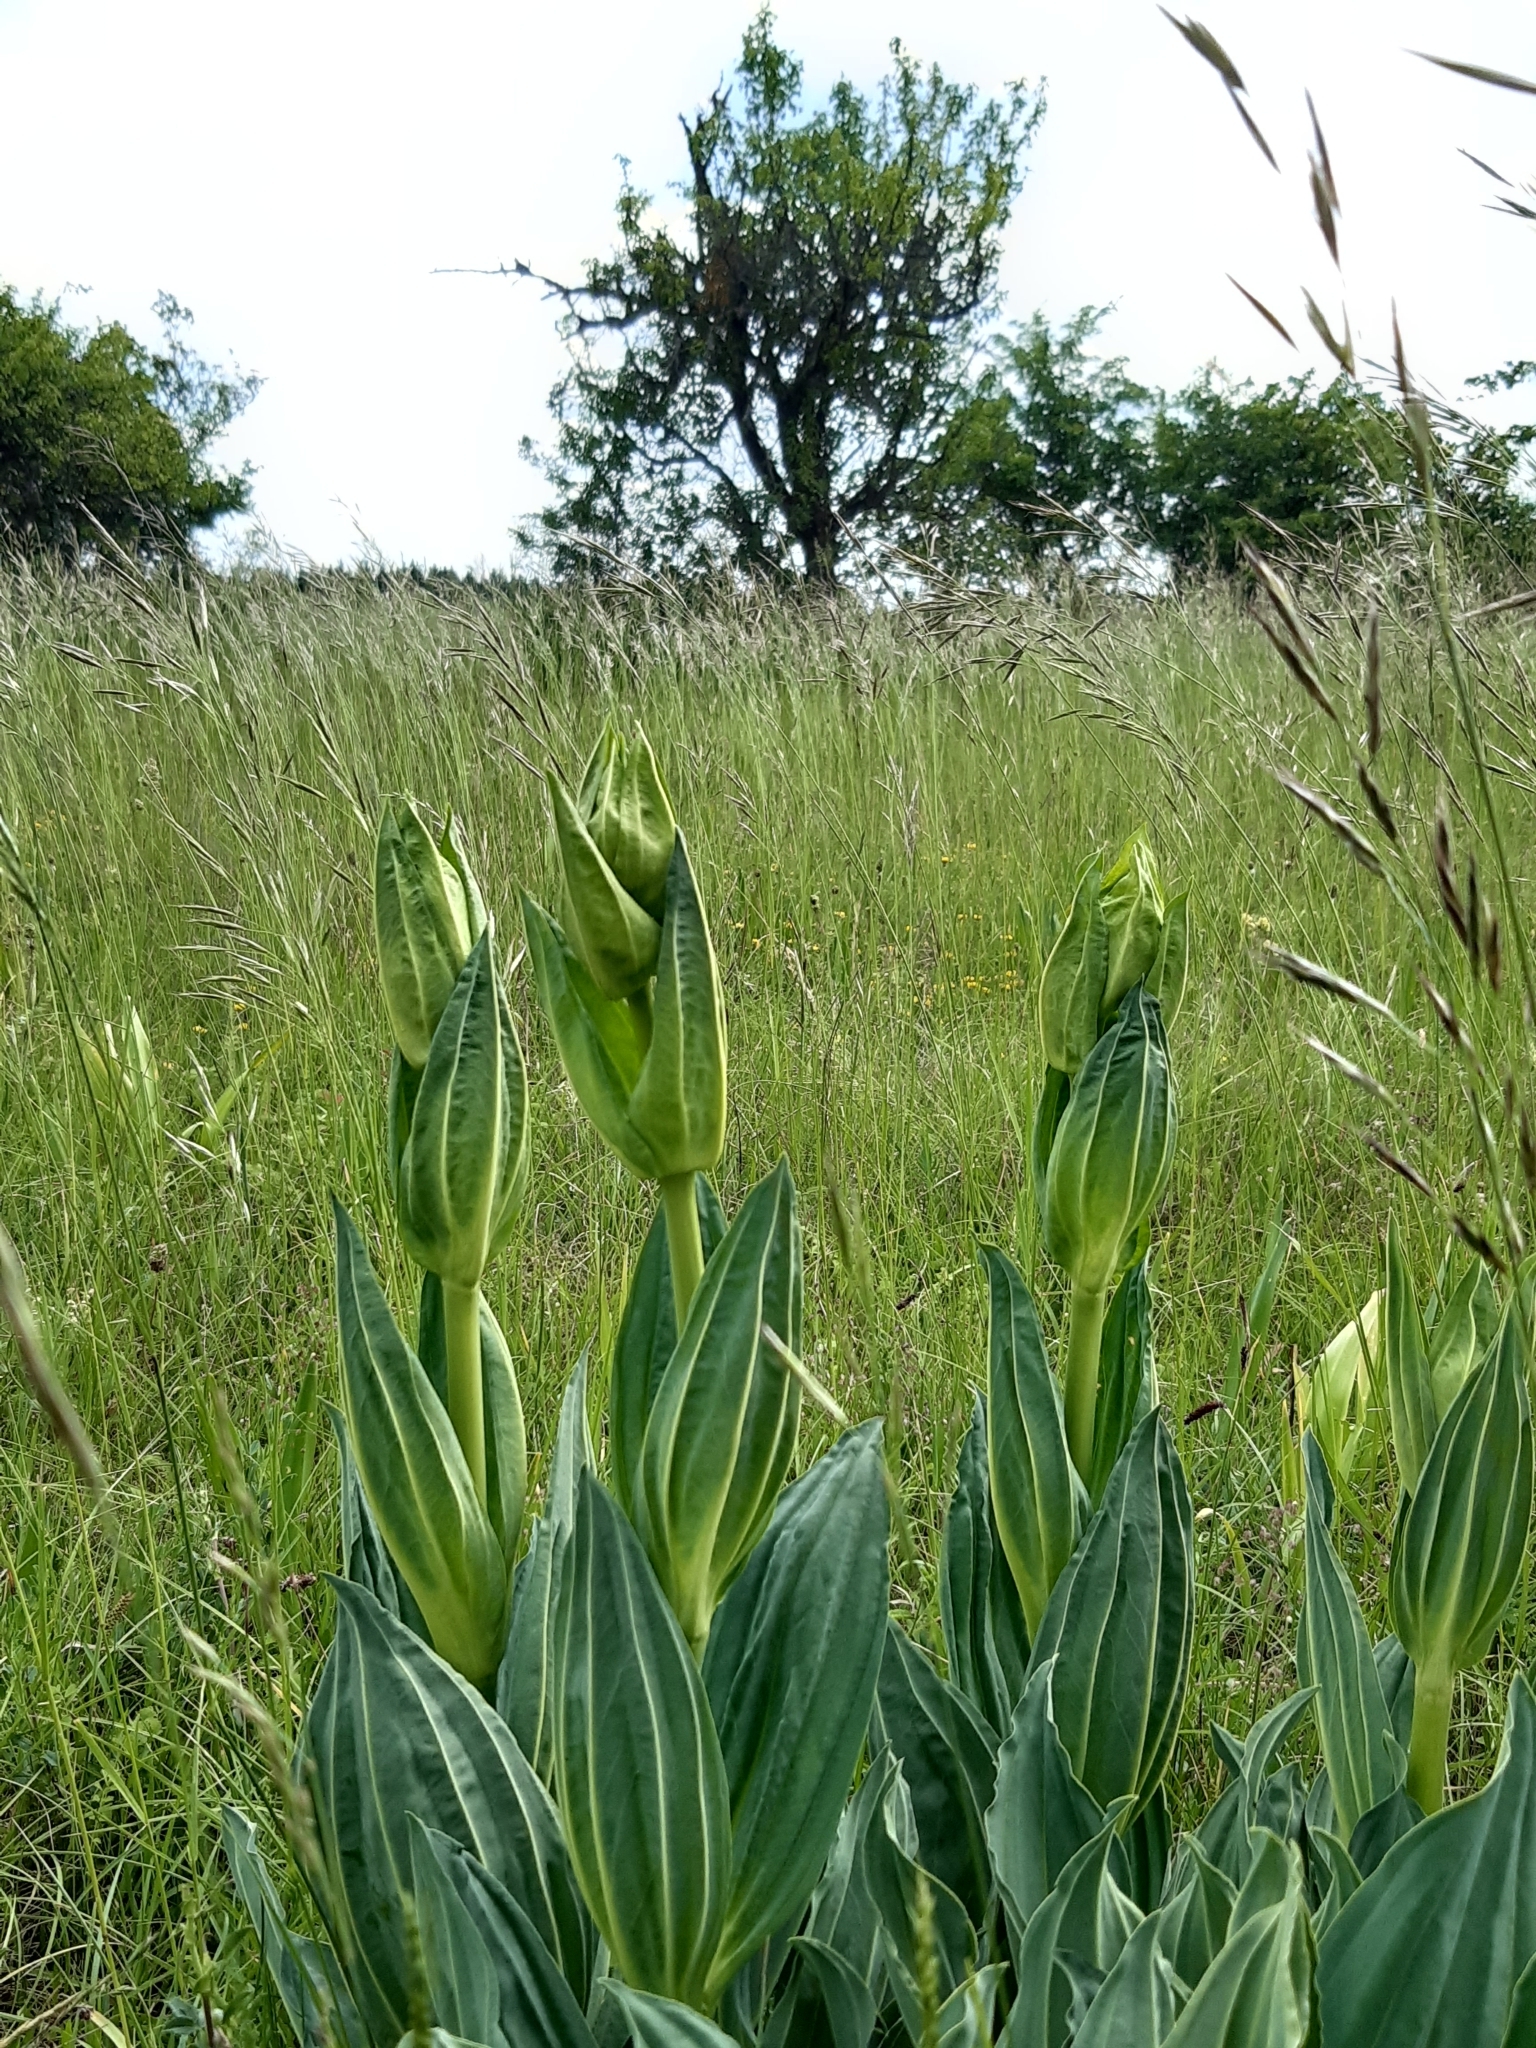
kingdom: Plantae
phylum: Tracheophyta
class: Magnoliopsida
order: Gentianales
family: Gentianaceae
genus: Gentiana
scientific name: Gentiana lutea
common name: Great yellow gentian
